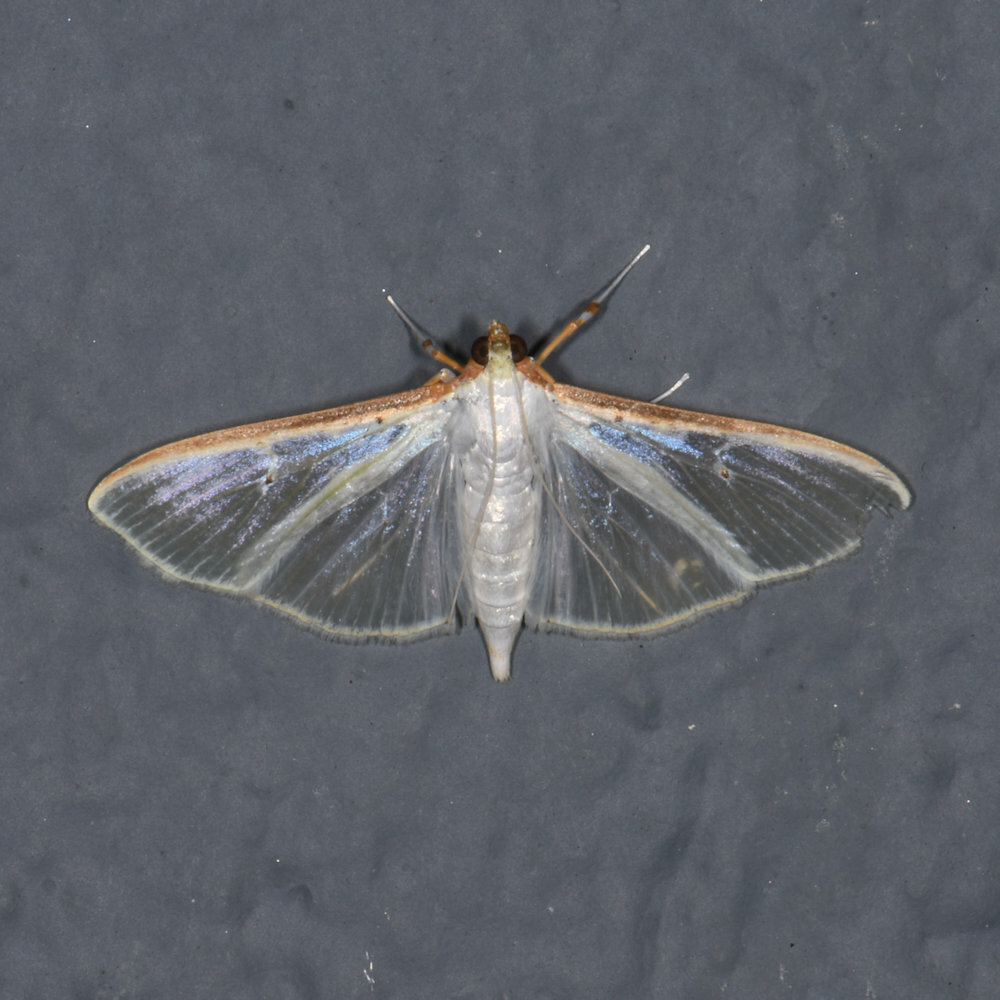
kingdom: Animalia
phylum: Arthropoda
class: Insecta
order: Lepidoptera
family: Crambidae
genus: Palpita
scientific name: Palpita vitrealis
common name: Olive-tree pearl
